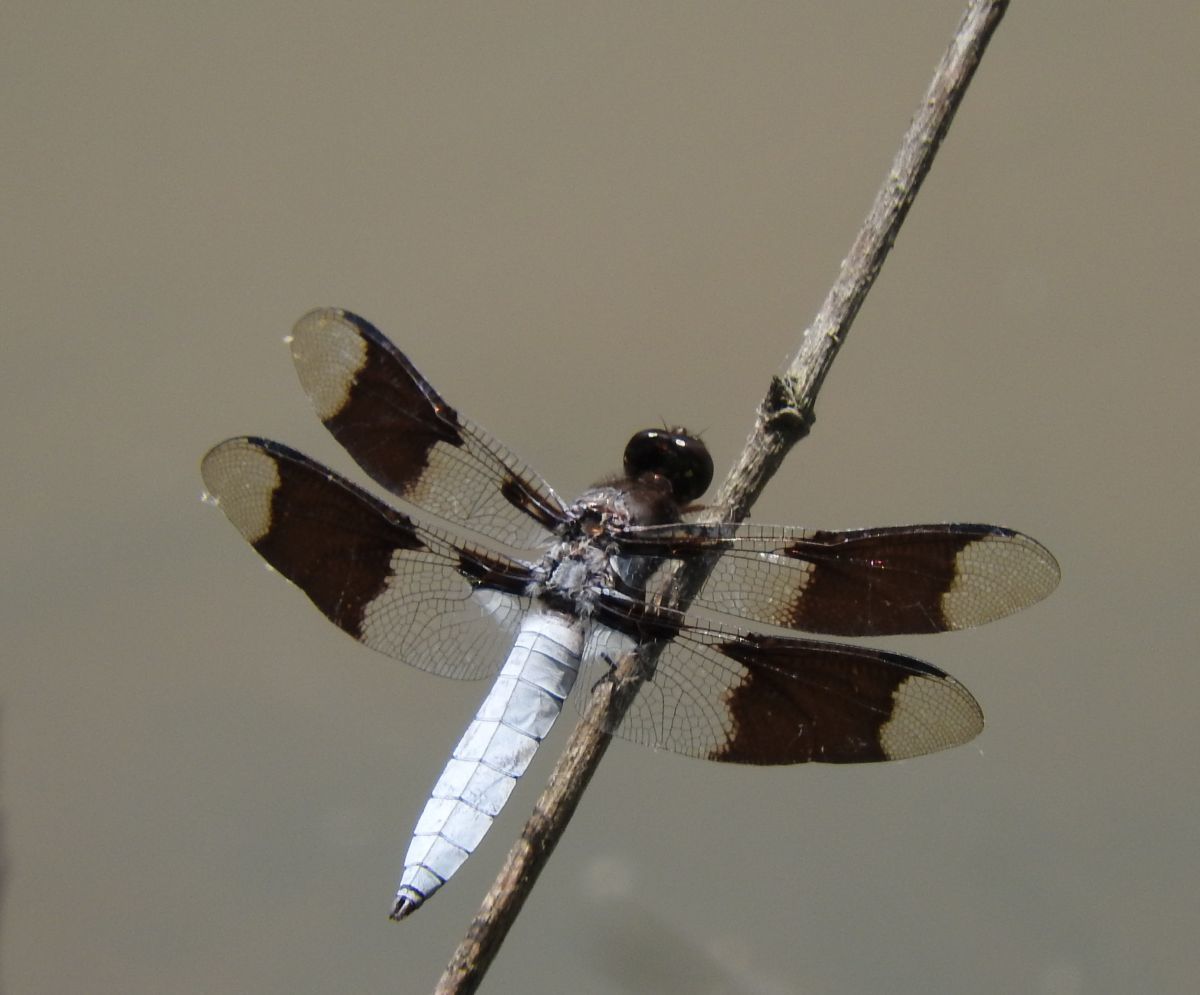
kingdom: Animalia
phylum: Arthropoda
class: Insecta
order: Odonata
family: Libellulidae
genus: Plathemis
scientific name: Plathemis lydia
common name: Common whitetail
